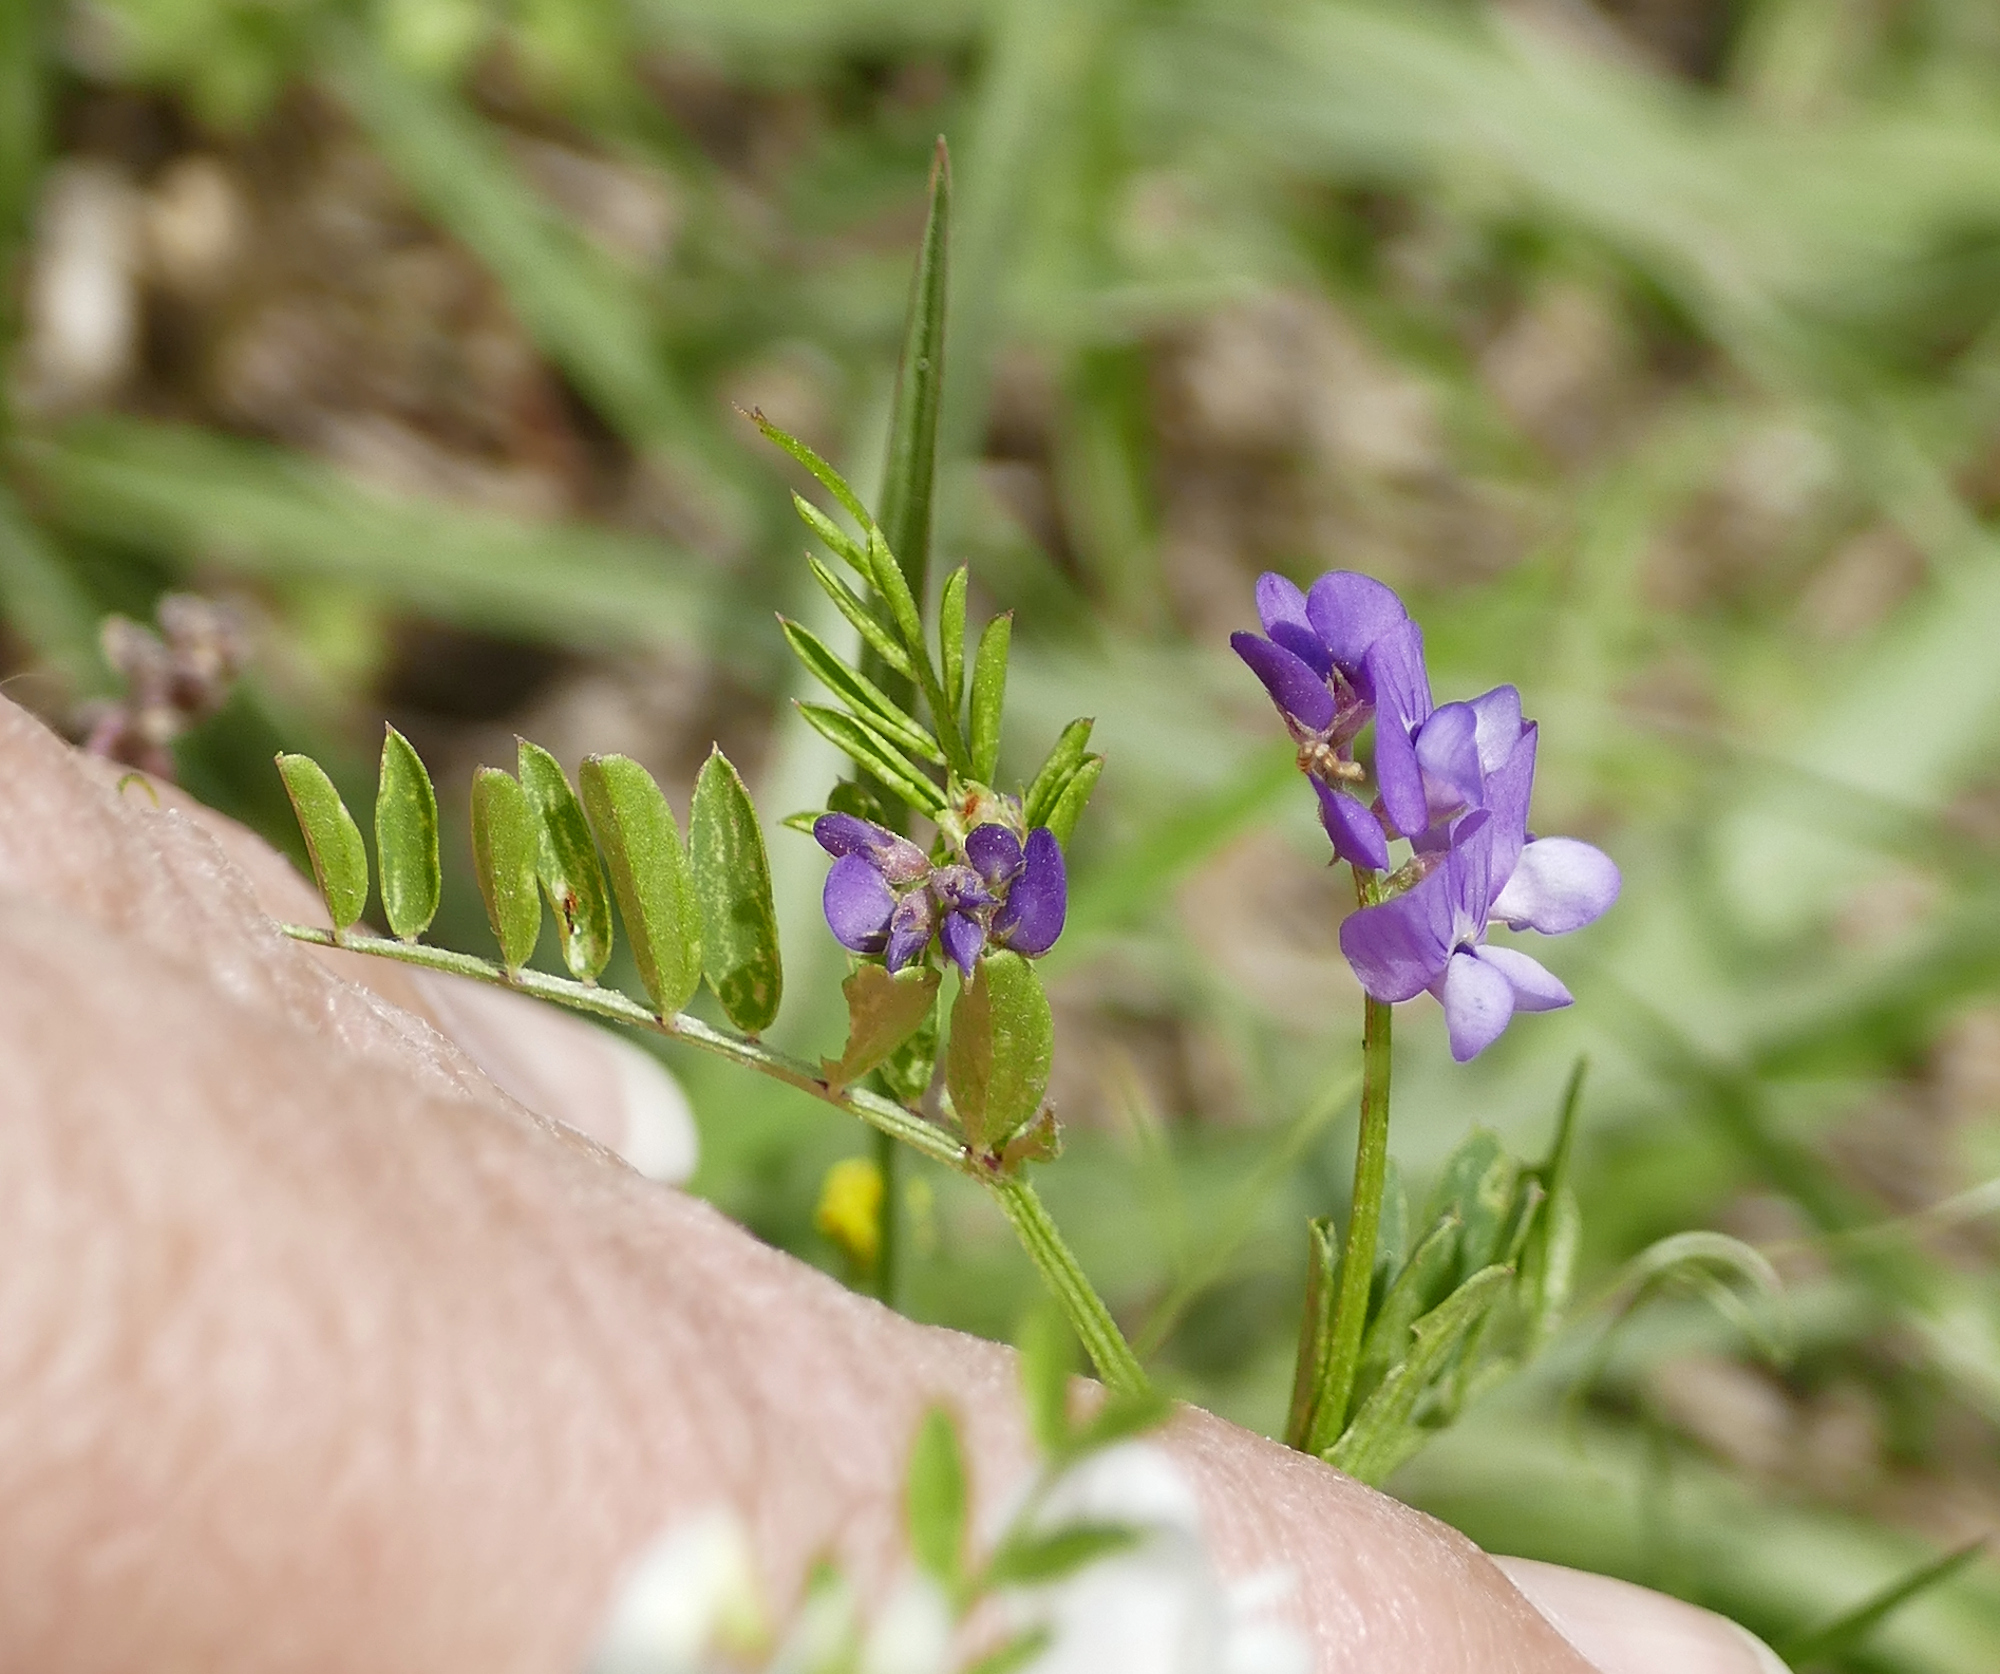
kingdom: Plantae
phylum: Tracheophyta
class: Magnoliopsida
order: Fabales
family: Fabaceae
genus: Vicia
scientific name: Vicia ludoviciana
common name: Louisiana vetch
